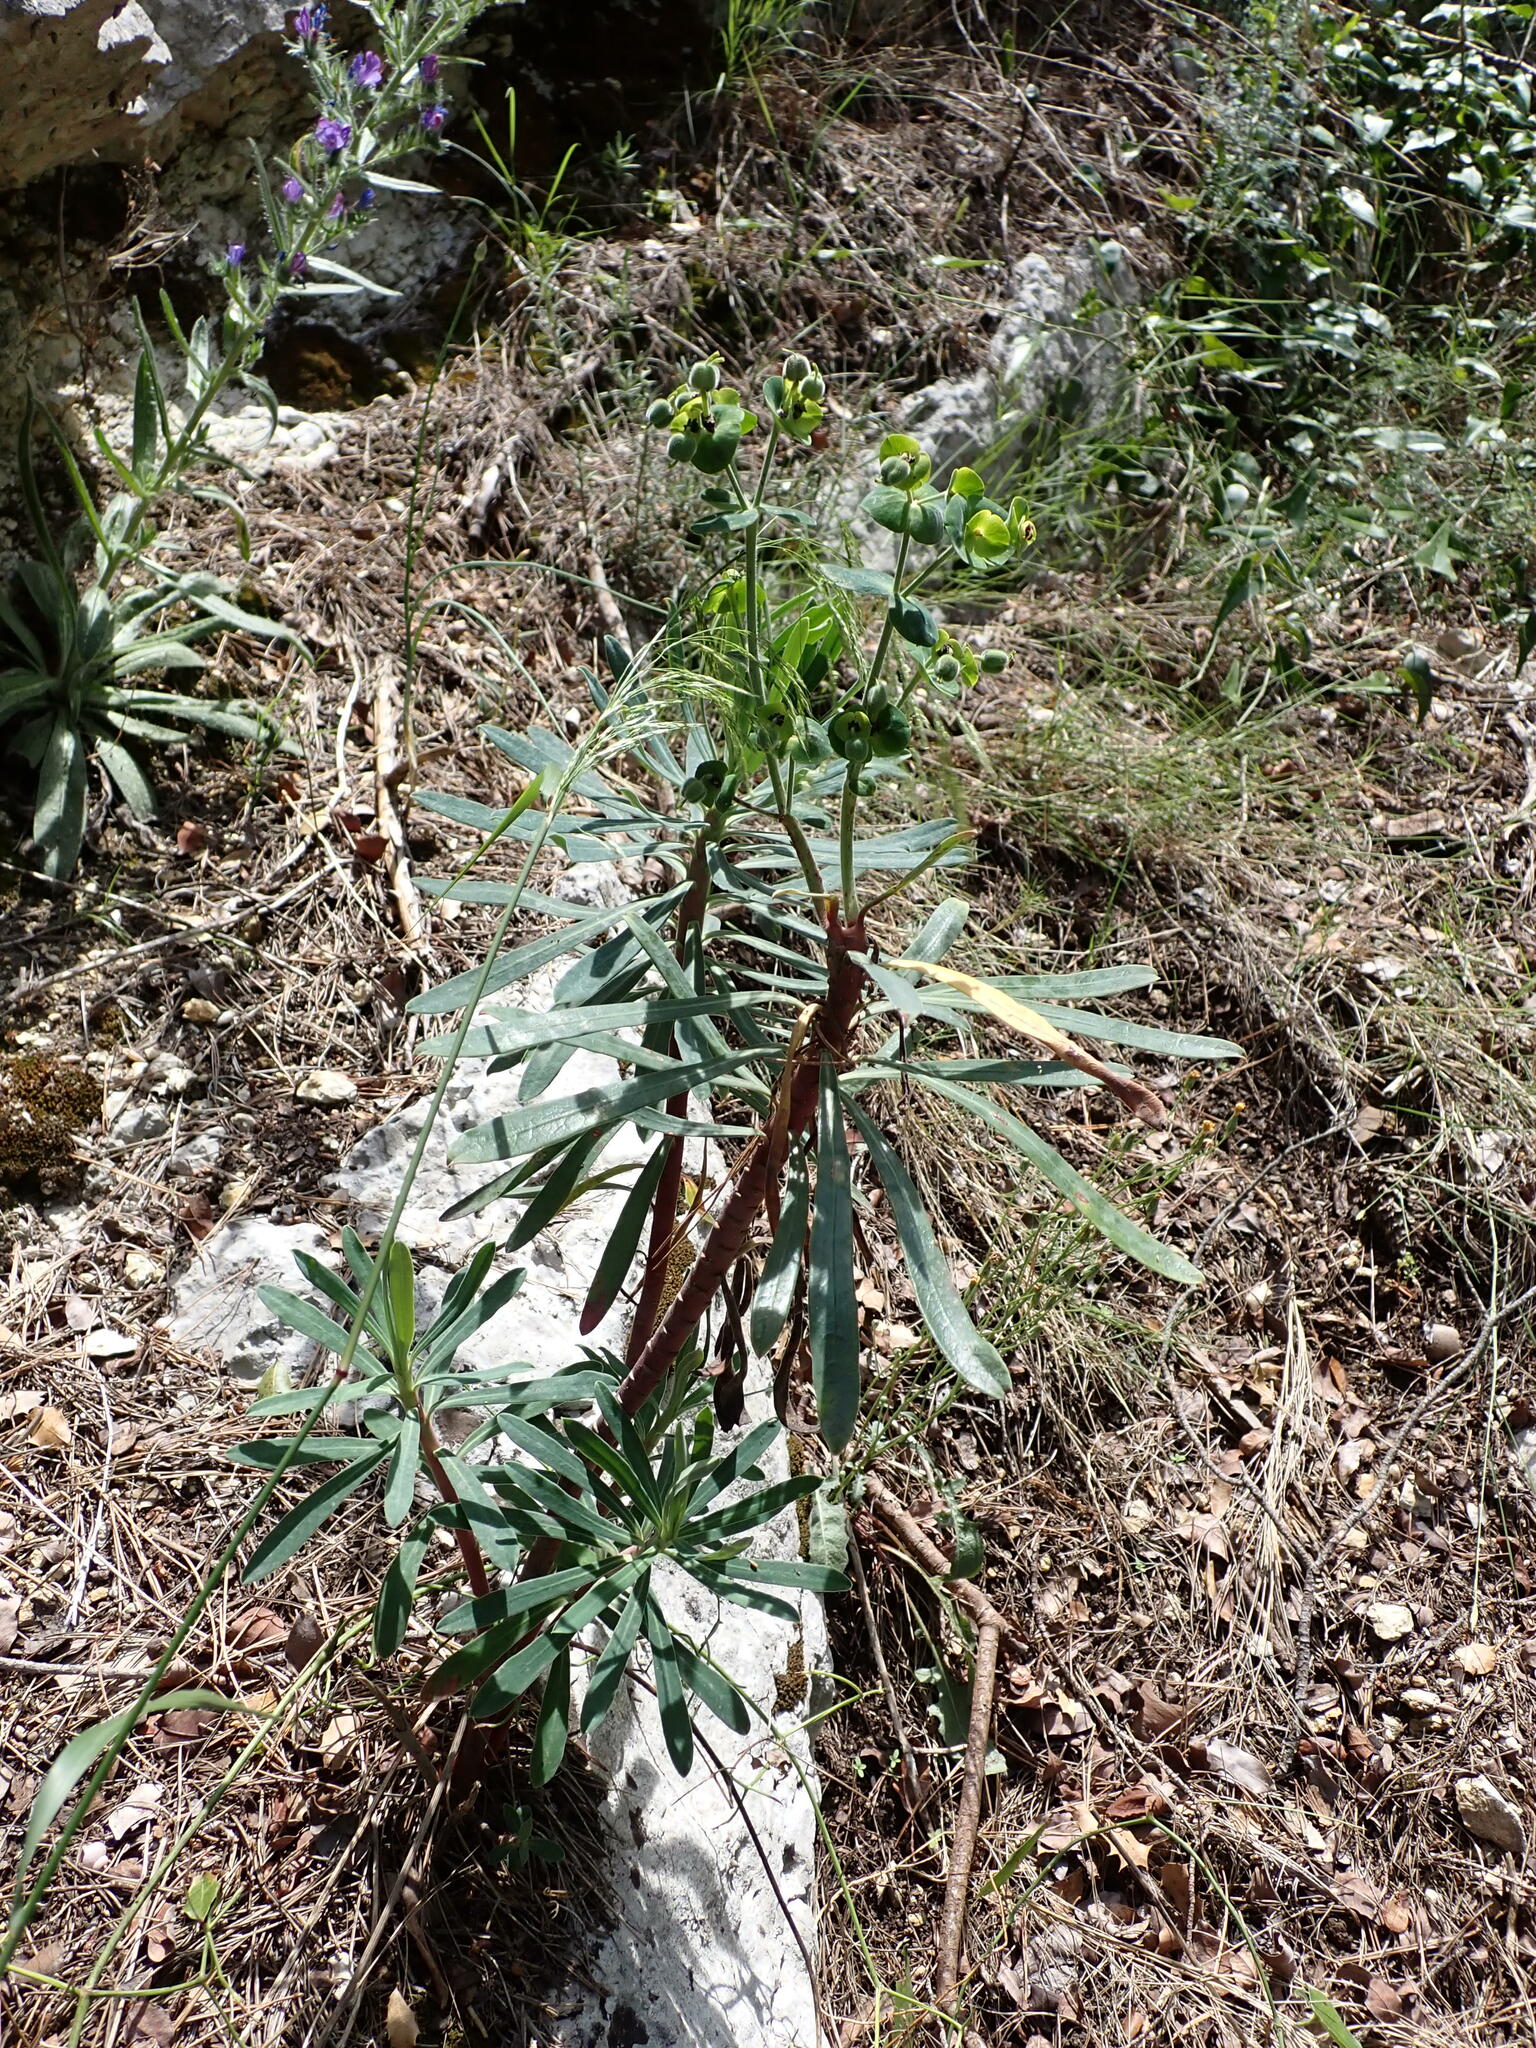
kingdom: Plantae
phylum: Tracheophyta
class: Magnoliopsida
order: Malpighiales
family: Euphorbiaceae
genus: Euphorbia
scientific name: Euphorbia characias
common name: Mediterranean spurge
